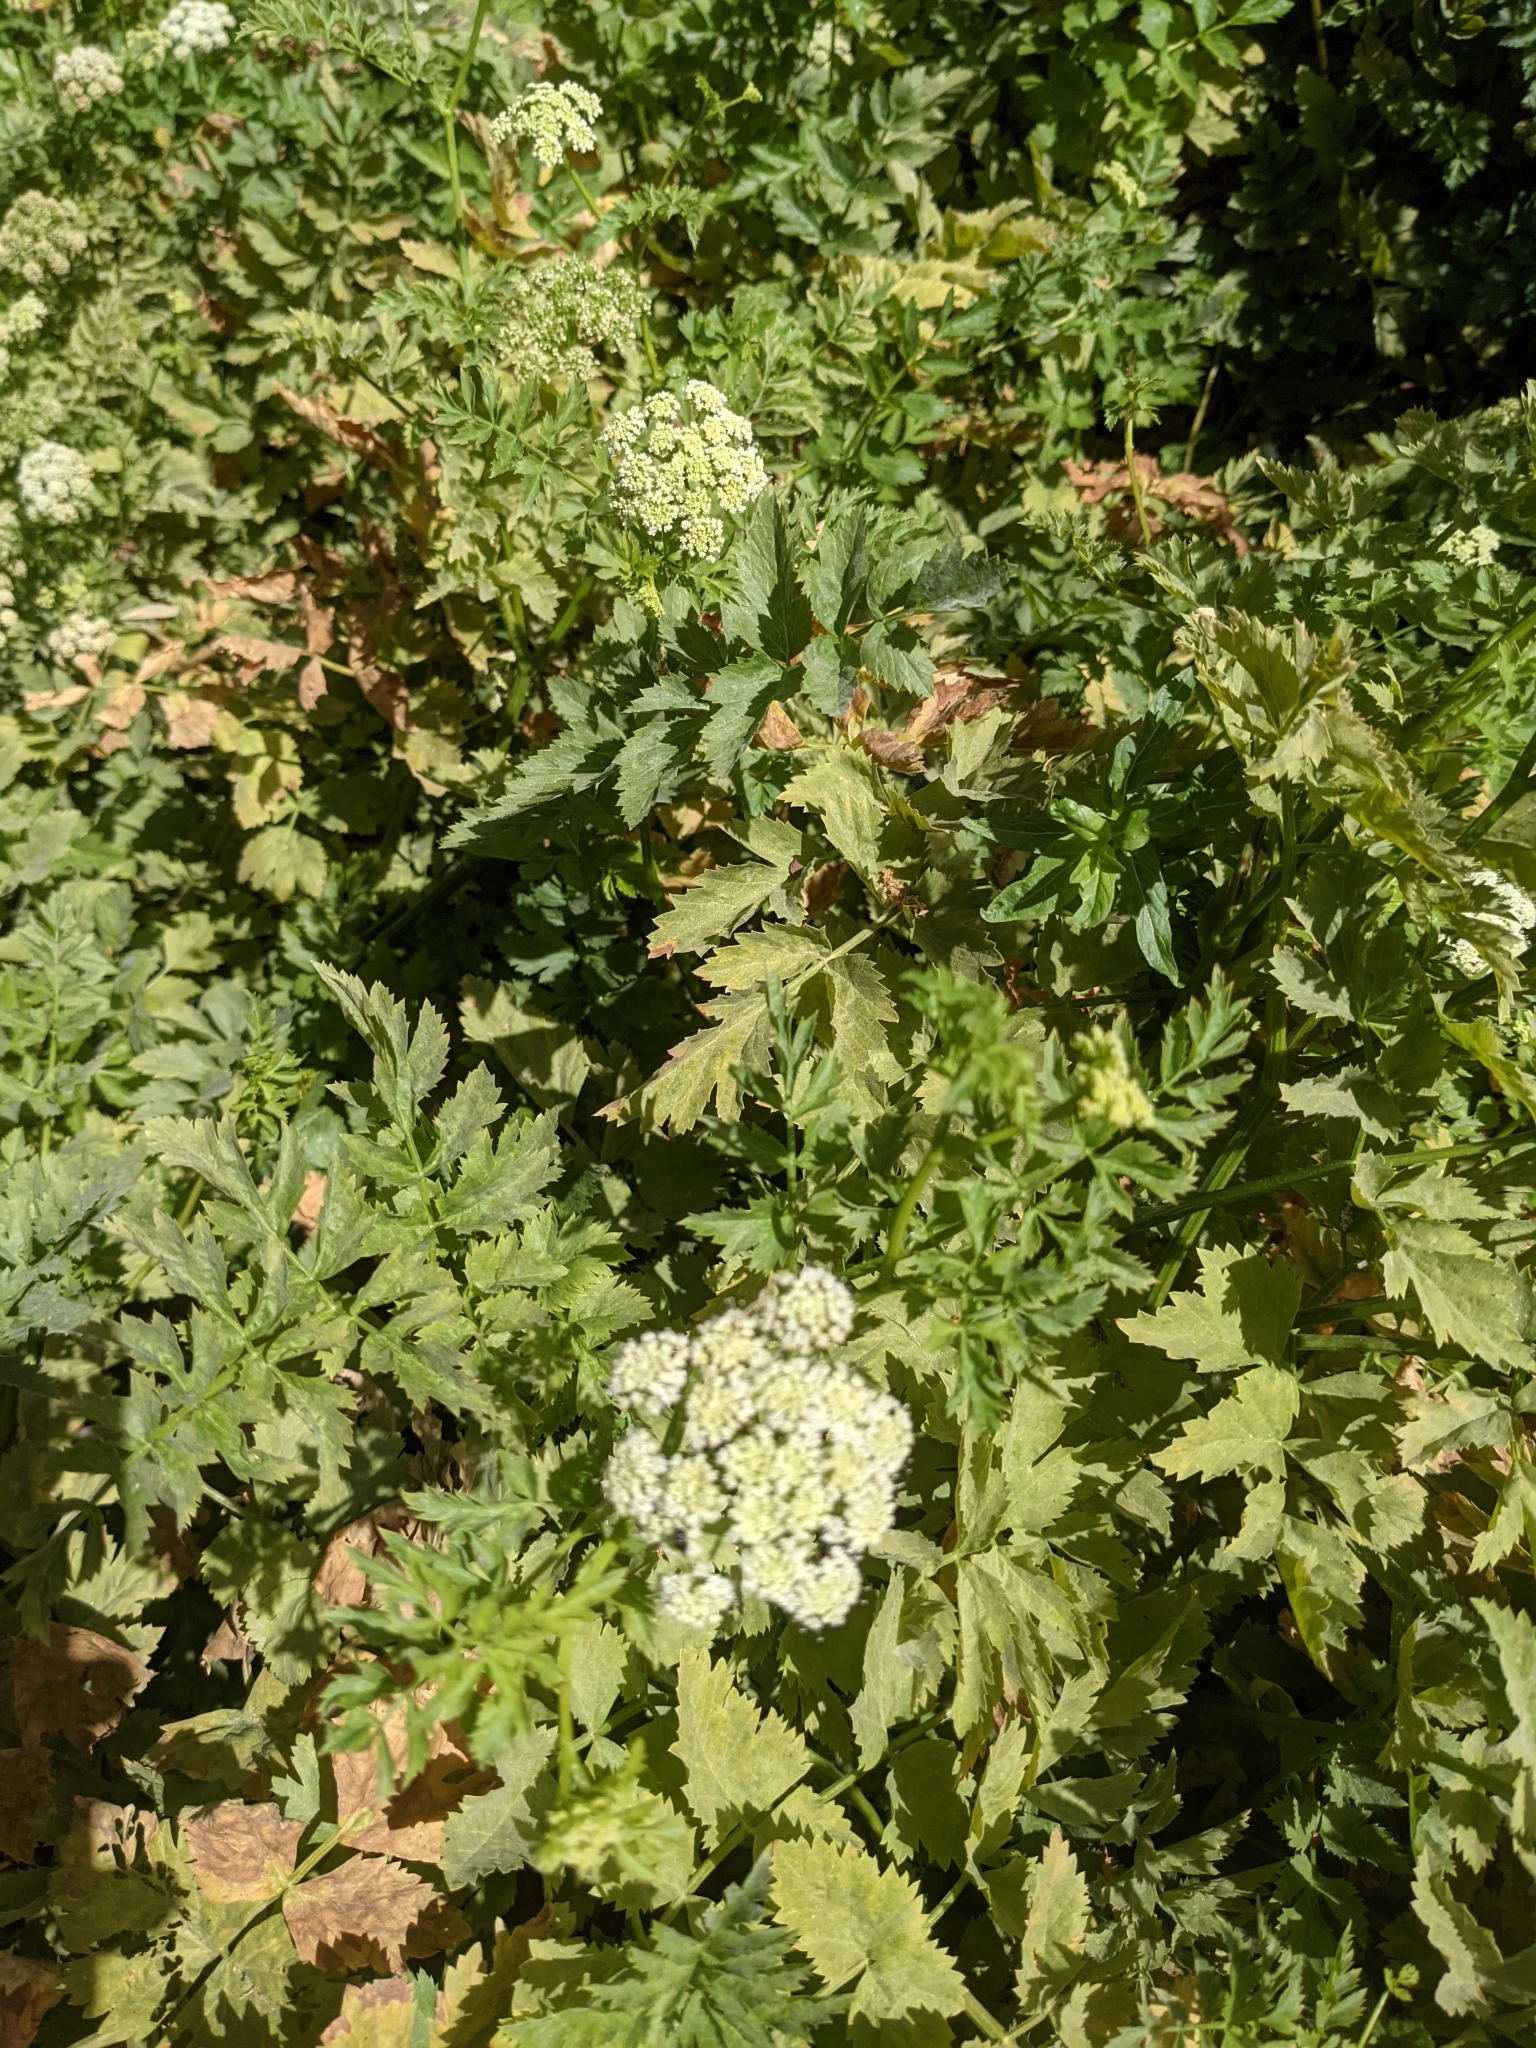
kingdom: Plantae
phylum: Tracheophyta
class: Magnoliopsida
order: Apiales
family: Apiaceae
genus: Berula
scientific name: Berula erecta
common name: Lesser water-parsnip
